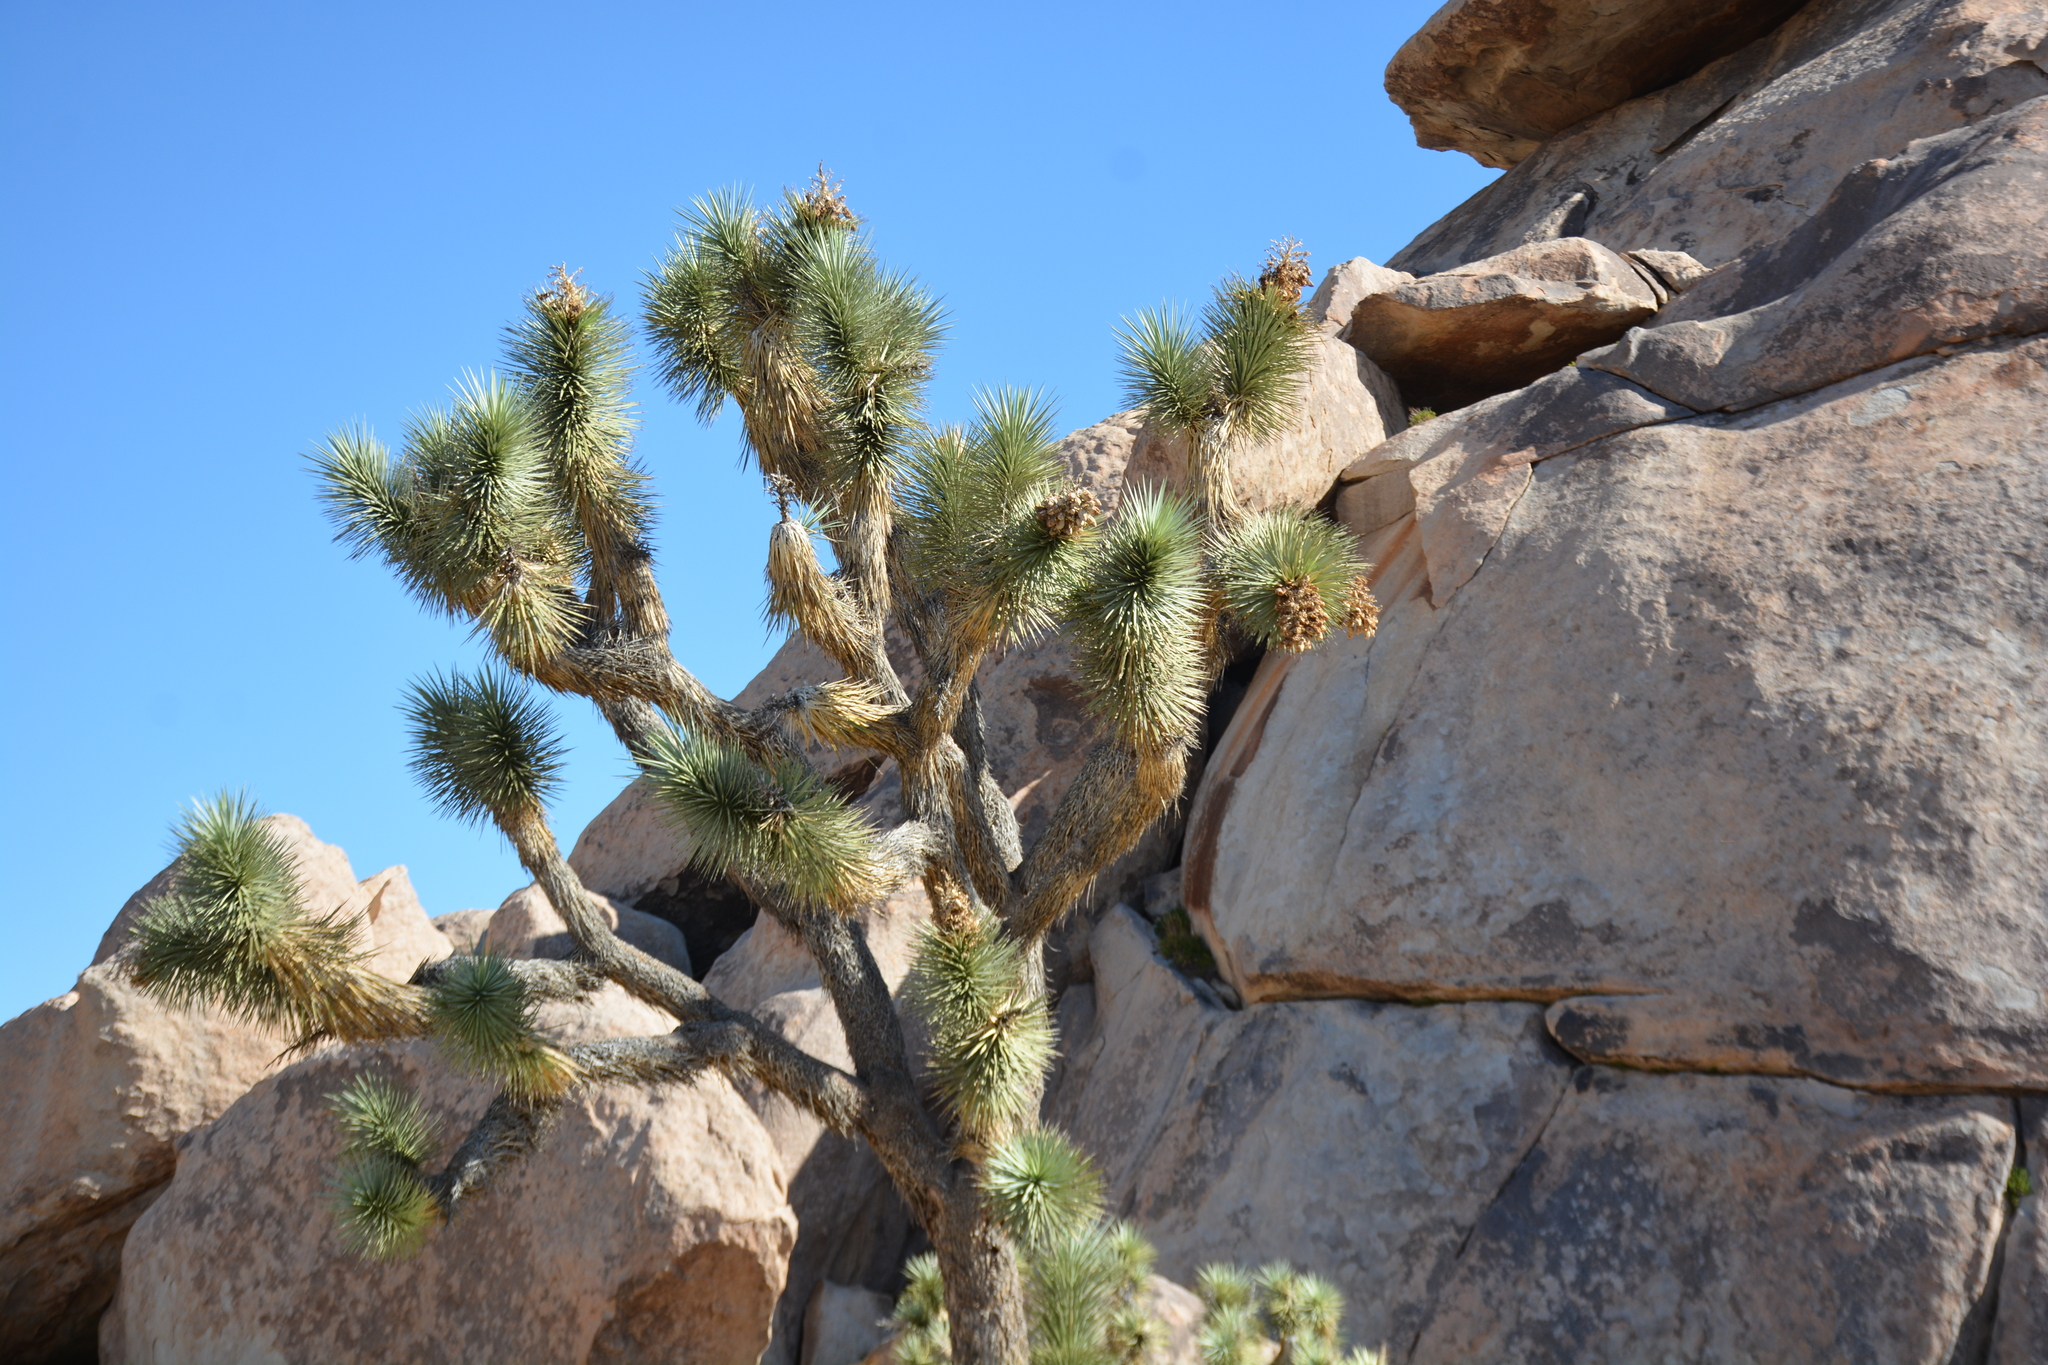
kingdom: Plantae
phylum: Tracheophyta
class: Liliopsida
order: Asparagales
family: Asparagaceae
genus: Yucca
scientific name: Yucca brevifolia
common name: Joshua tree
